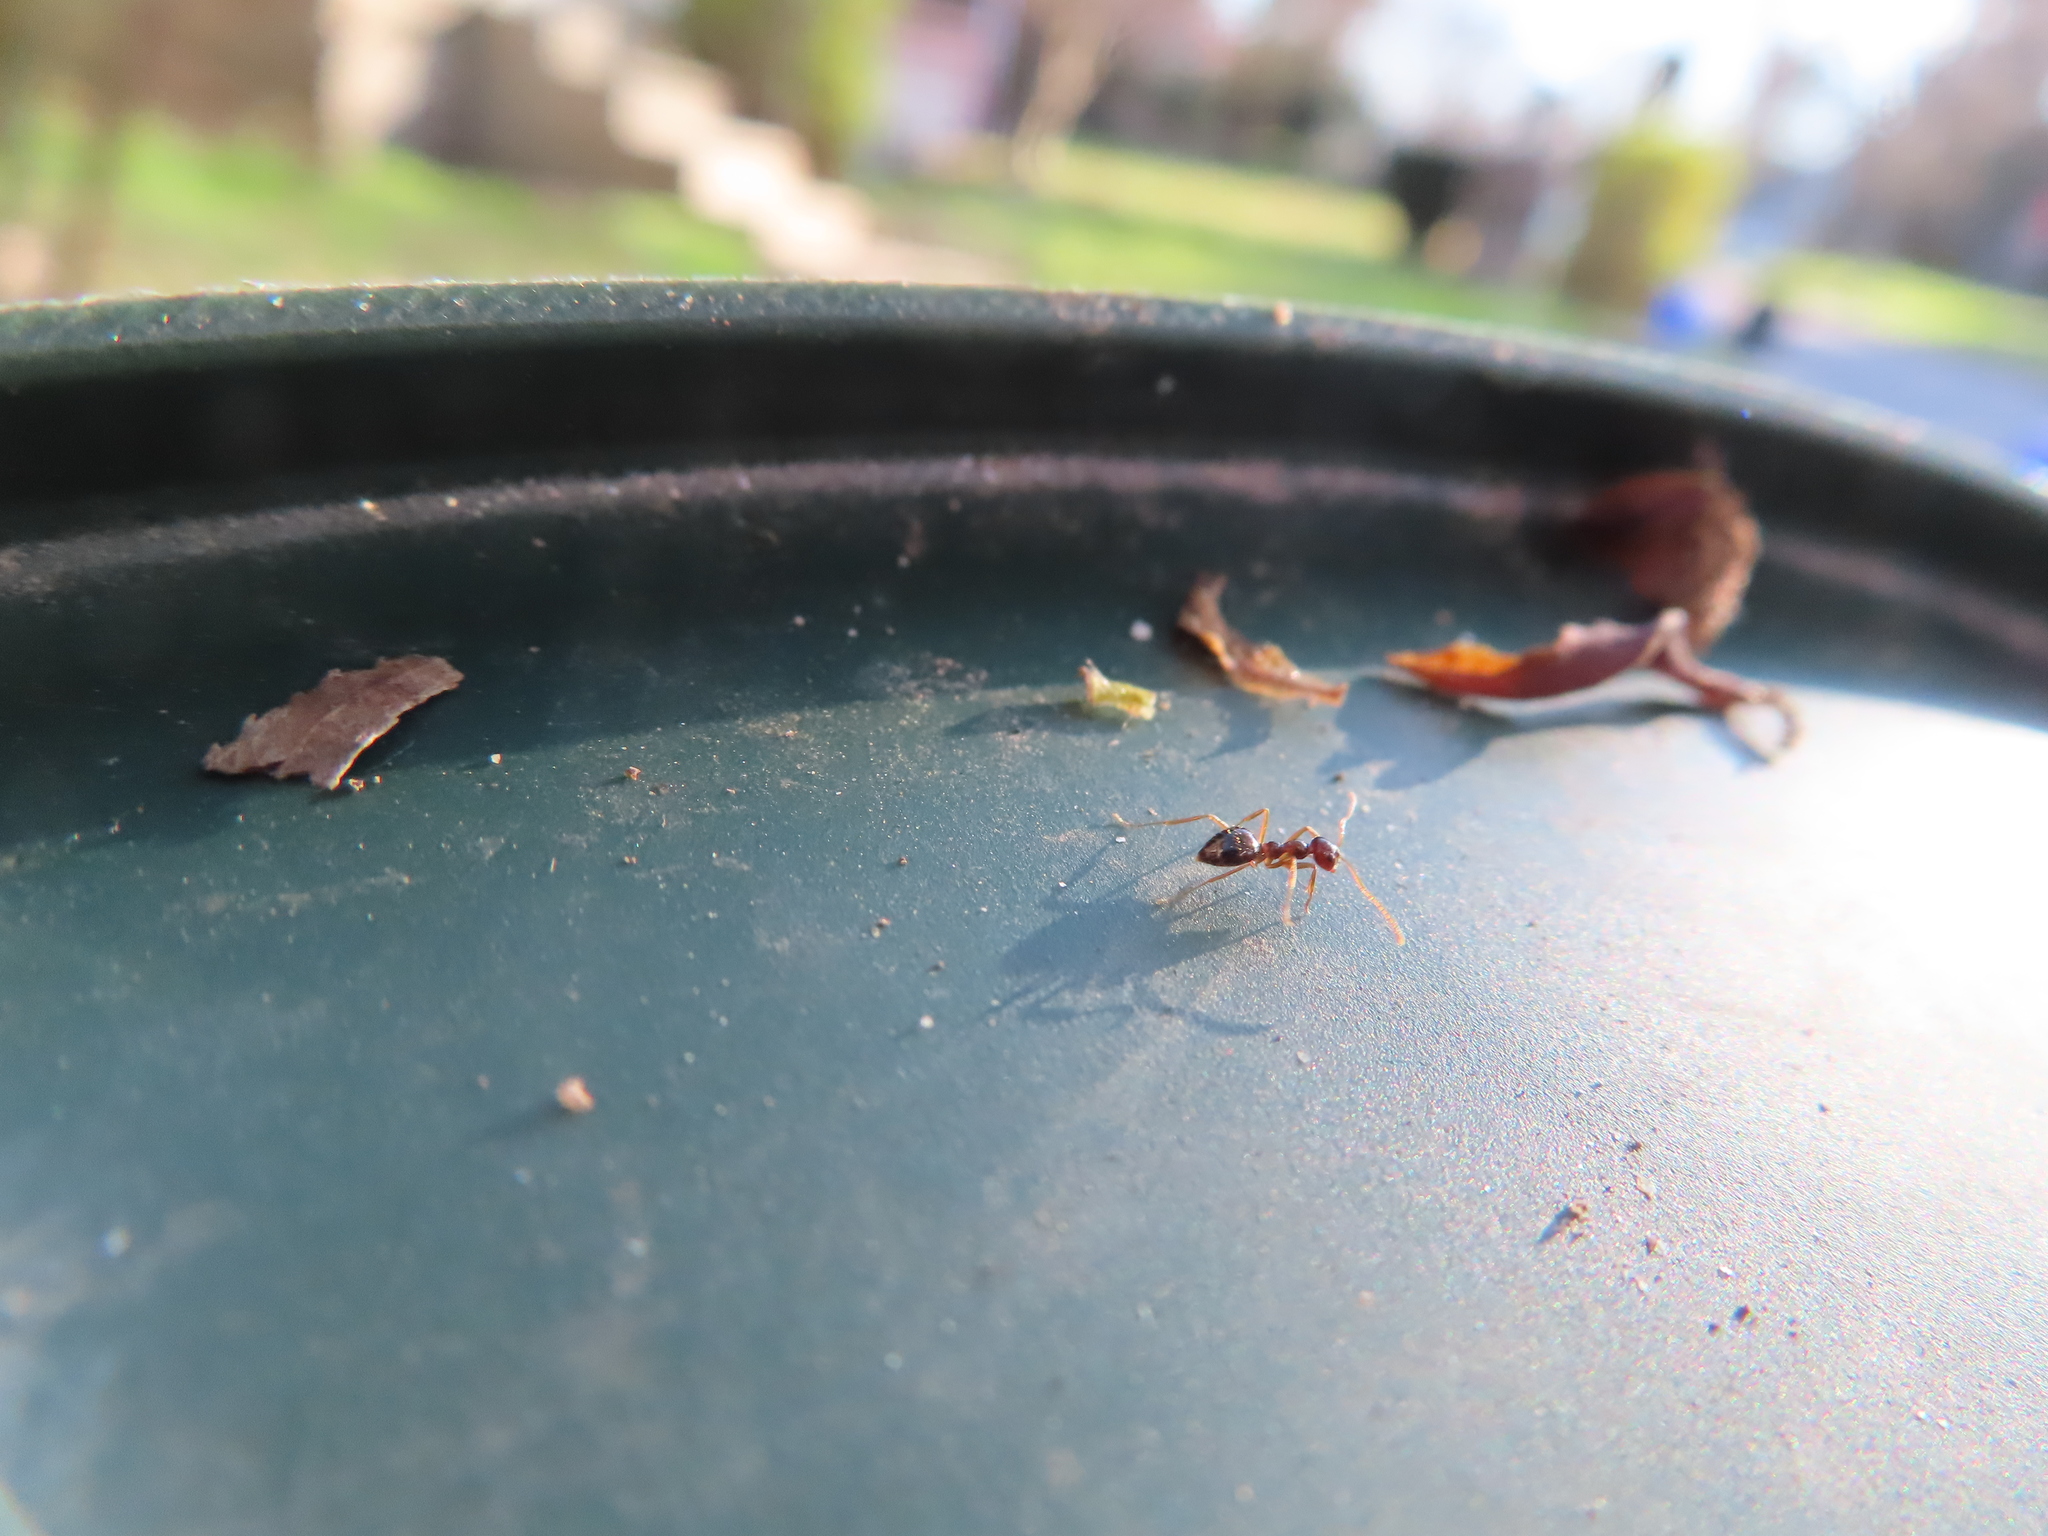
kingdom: Animalia
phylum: Arthropoda
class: Insecta
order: Hymenoptera
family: Formicidae
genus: Prenolepis
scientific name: Prenolepis imparis
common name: Small honey ant
